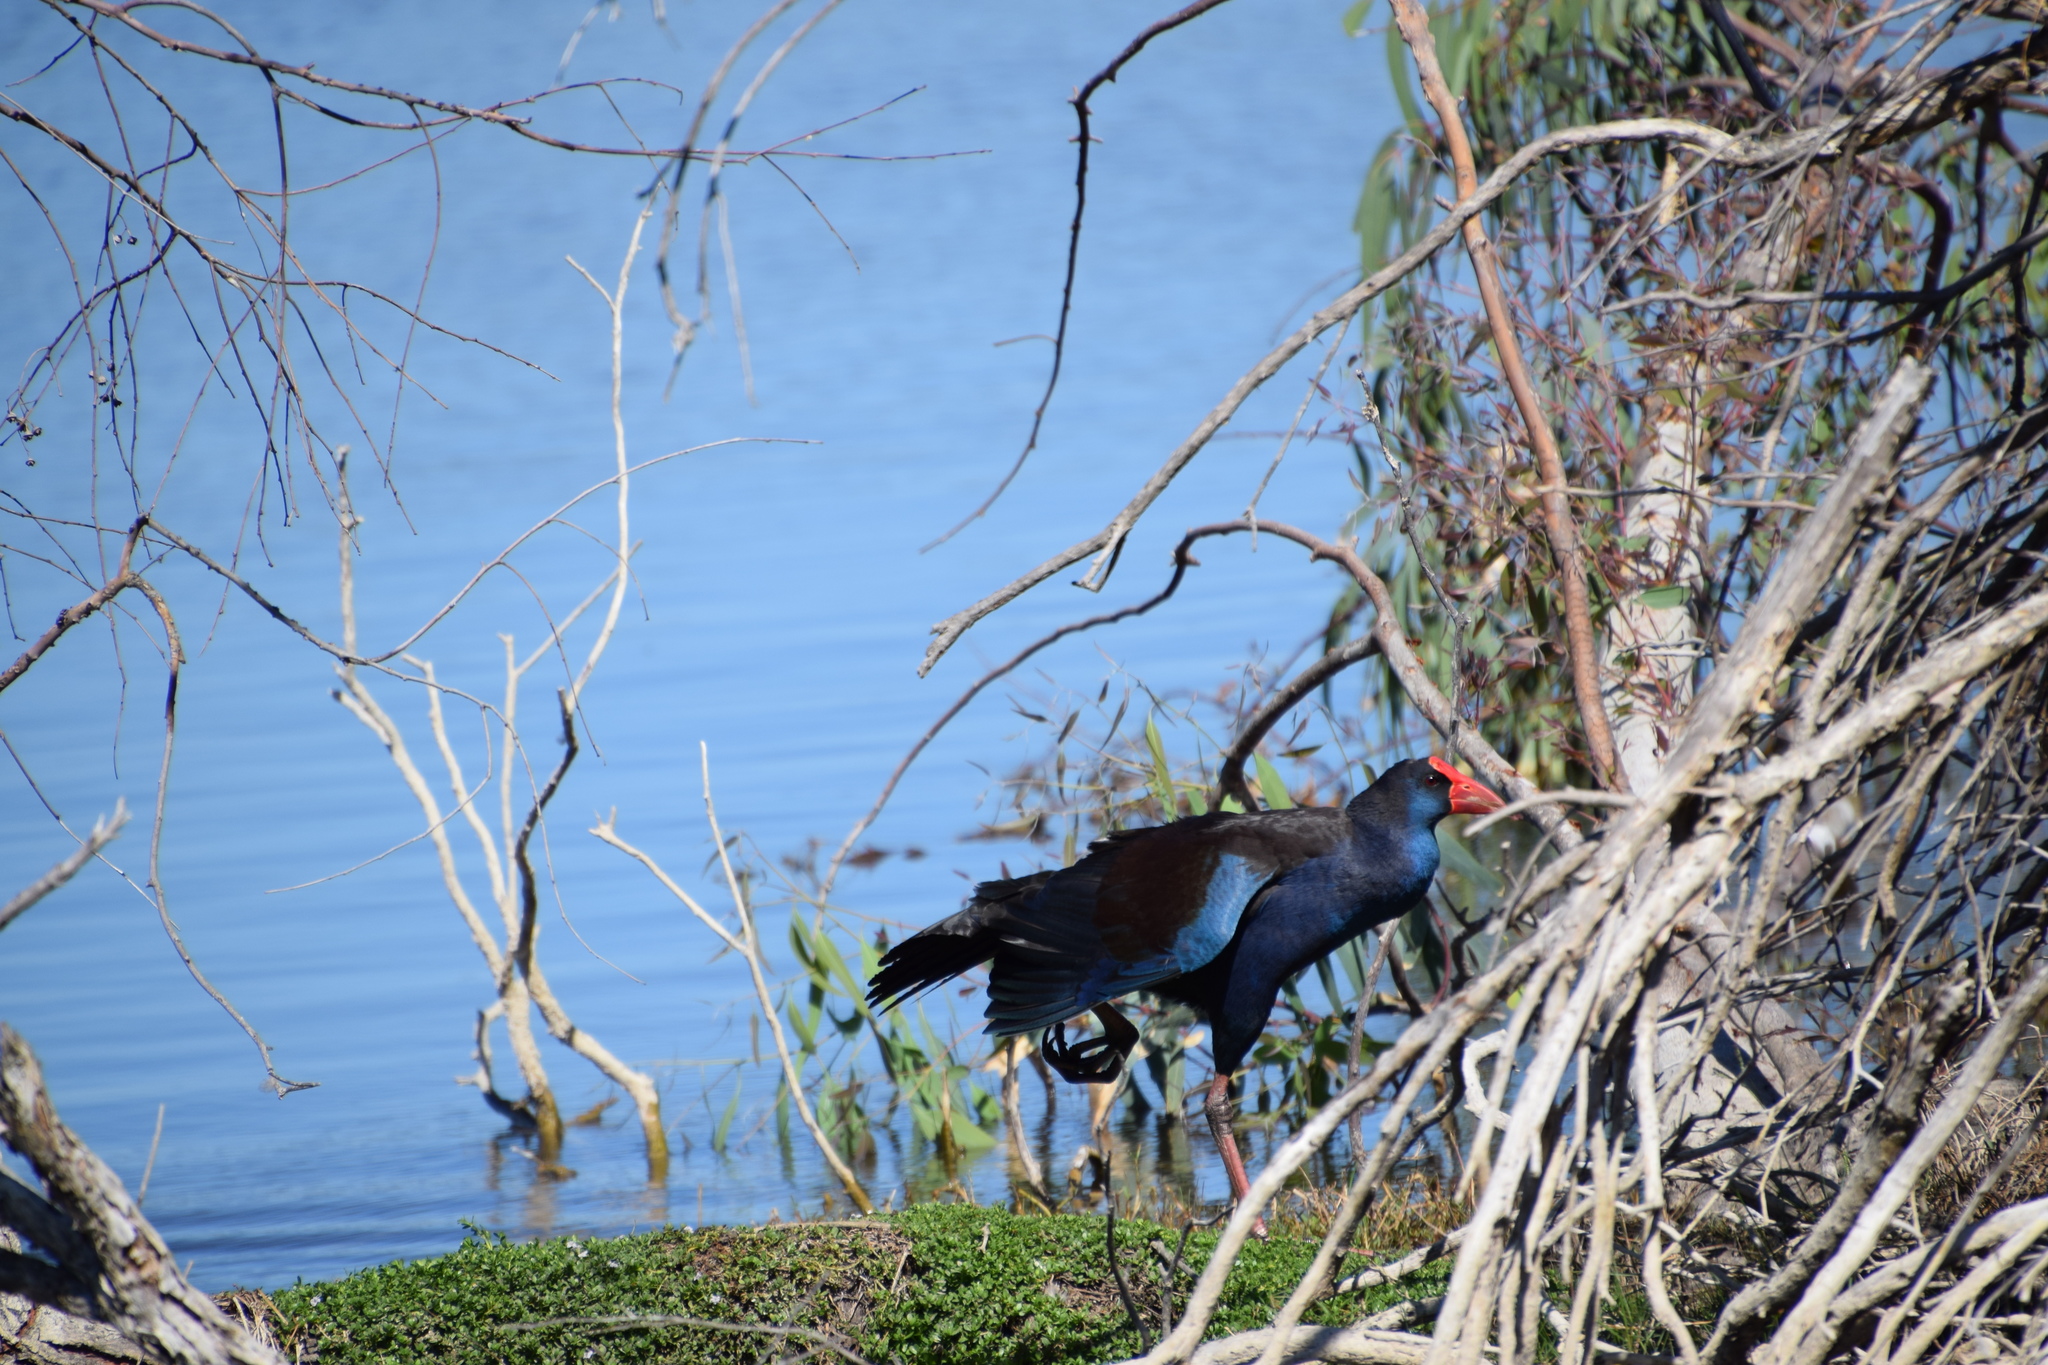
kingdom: Animalia
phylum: Chordata
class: Aves
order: Gruiformes
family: Rallidae
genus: Porphyrio
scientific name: Porphyrio melanotus
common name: Australasian swamphen
